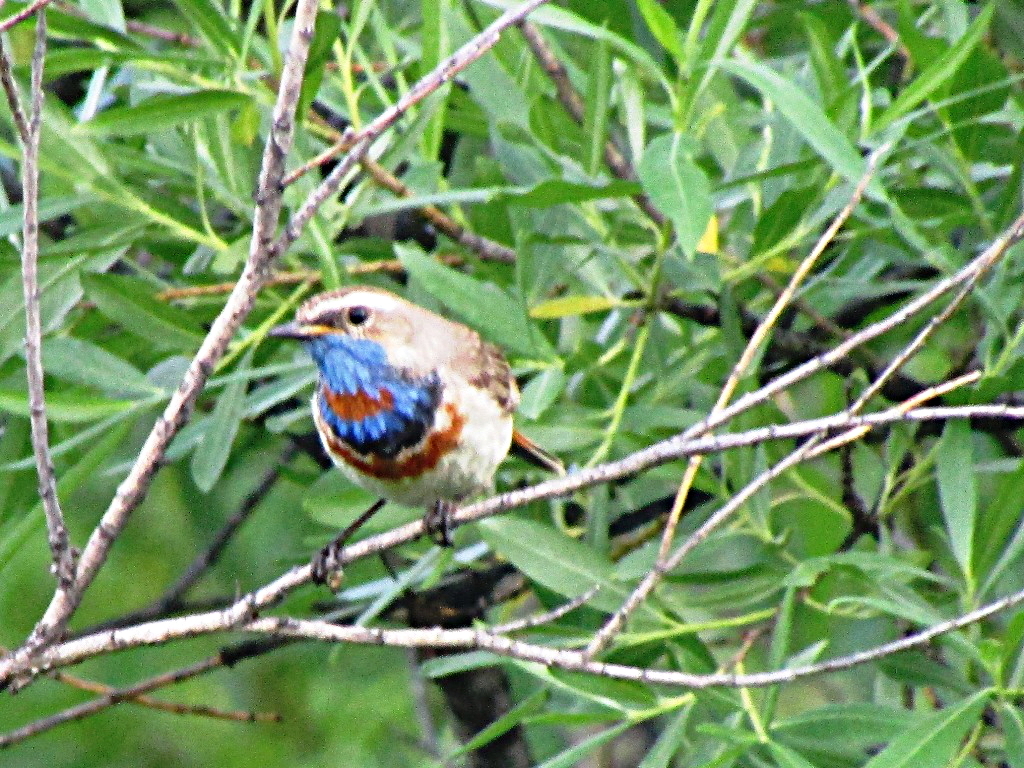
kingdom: Animalia
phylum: Chordata
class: Aves
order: Passeriformes
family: Muscicapidae
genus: Luscinia
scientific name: Luscinia svecica
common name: Bluethroat
